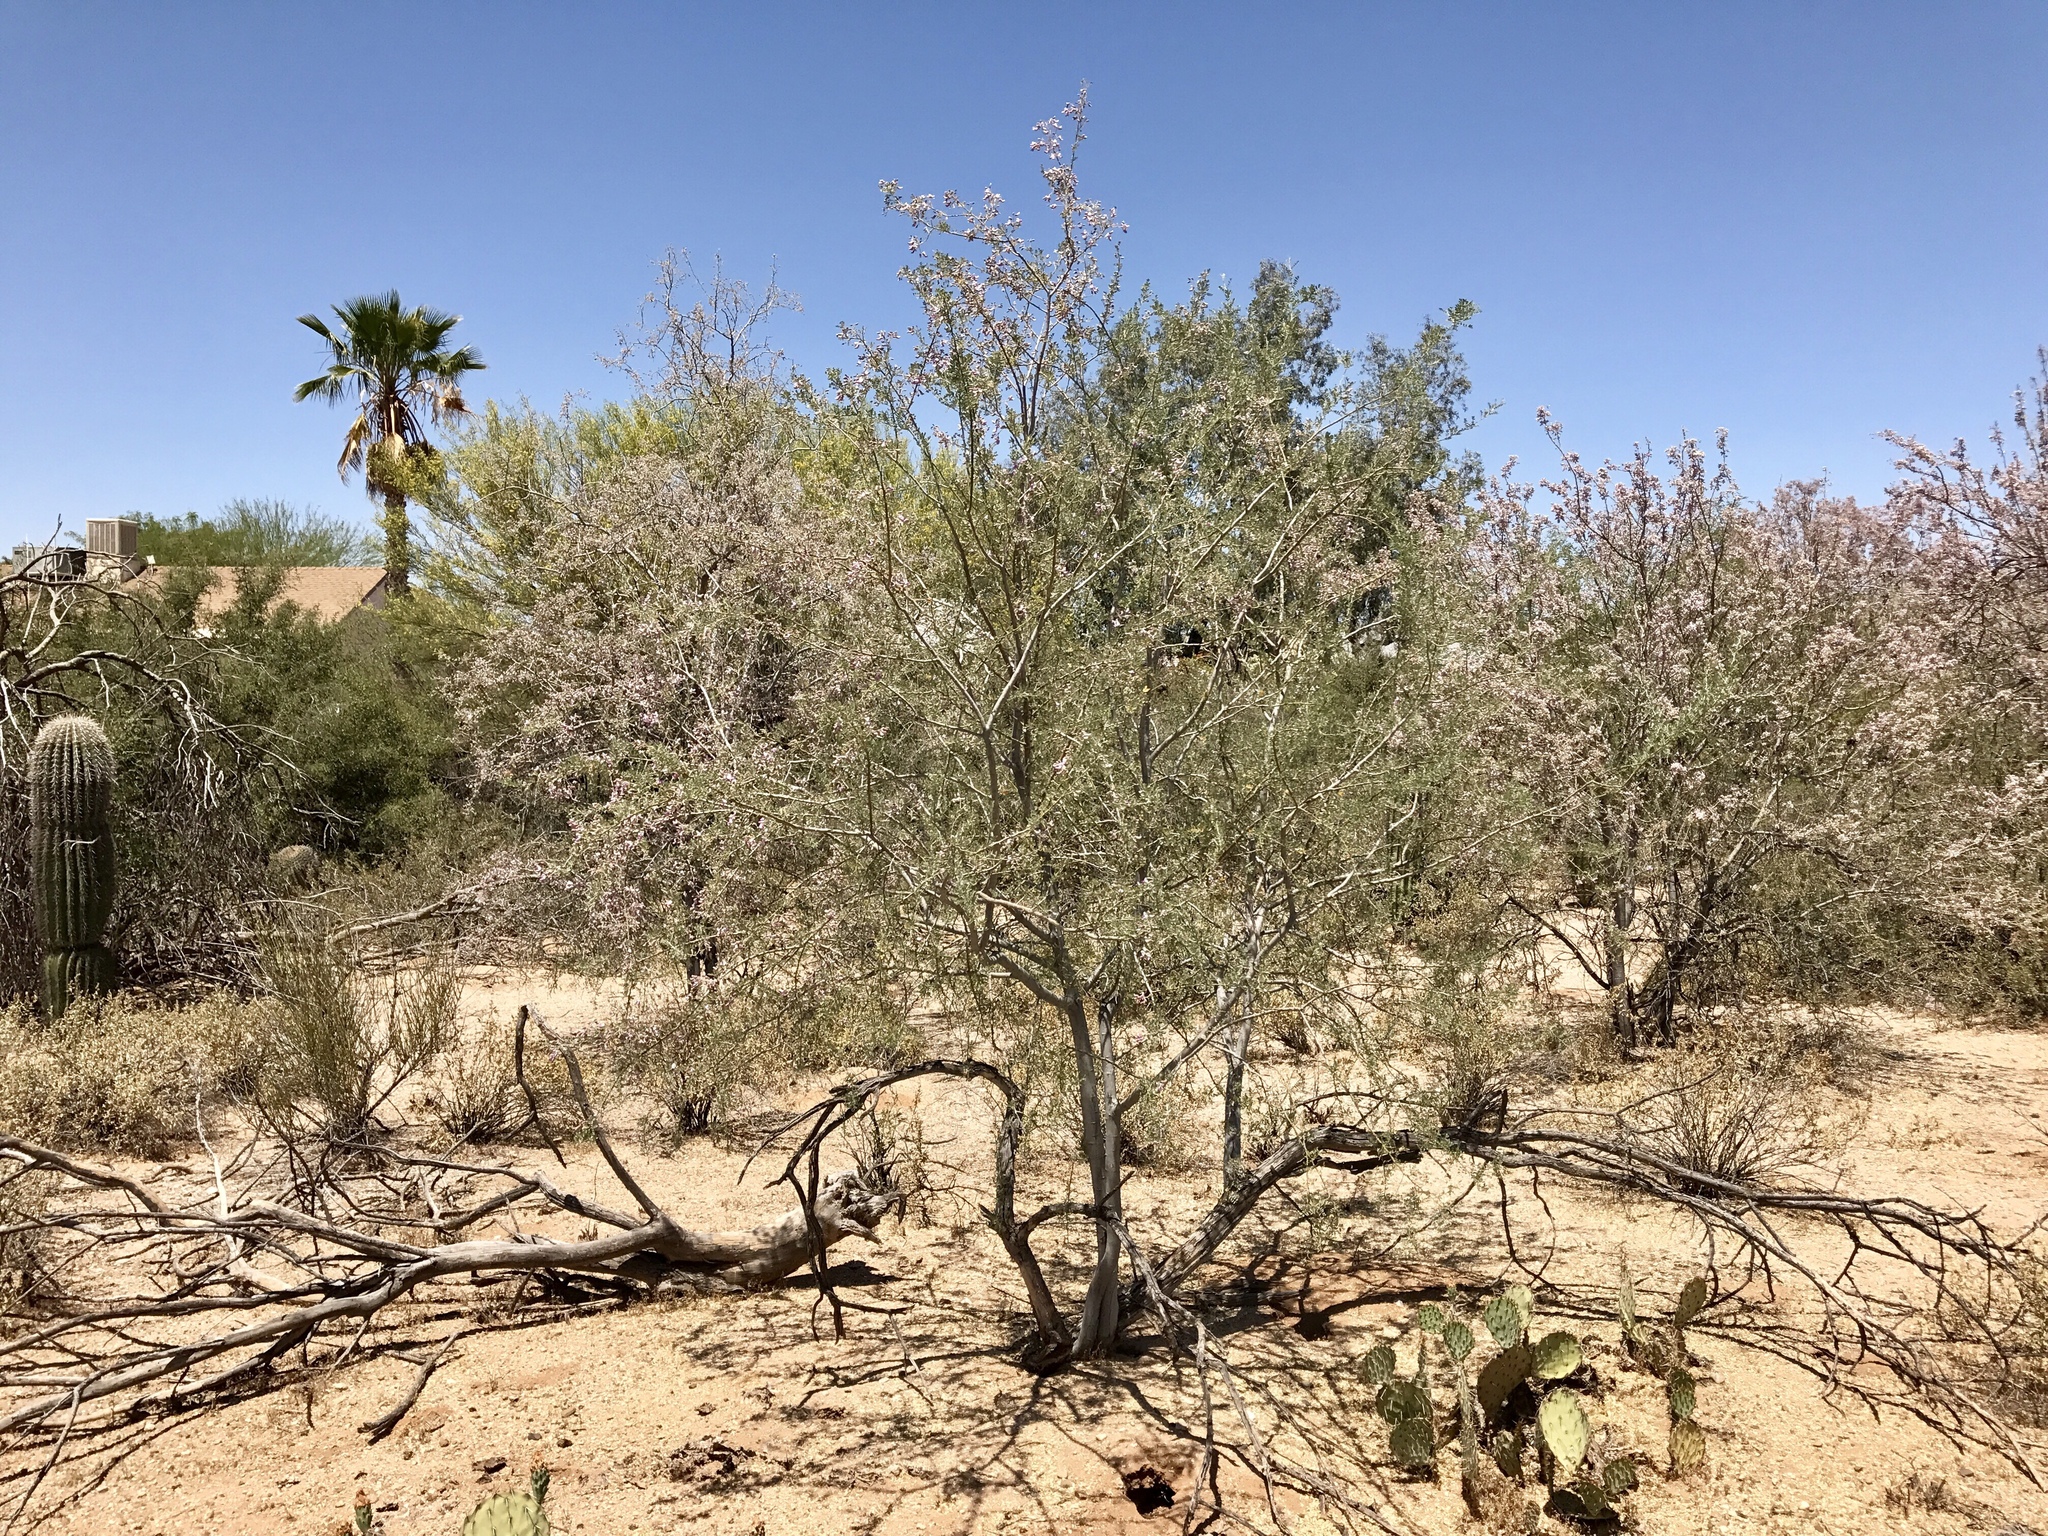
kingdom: Plantae
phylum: Tracheophyta
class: Magnoliopsida
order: Fabales
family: Fabaceae
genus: Olneya
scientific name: Olneya tesota
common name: Desert ironwood
